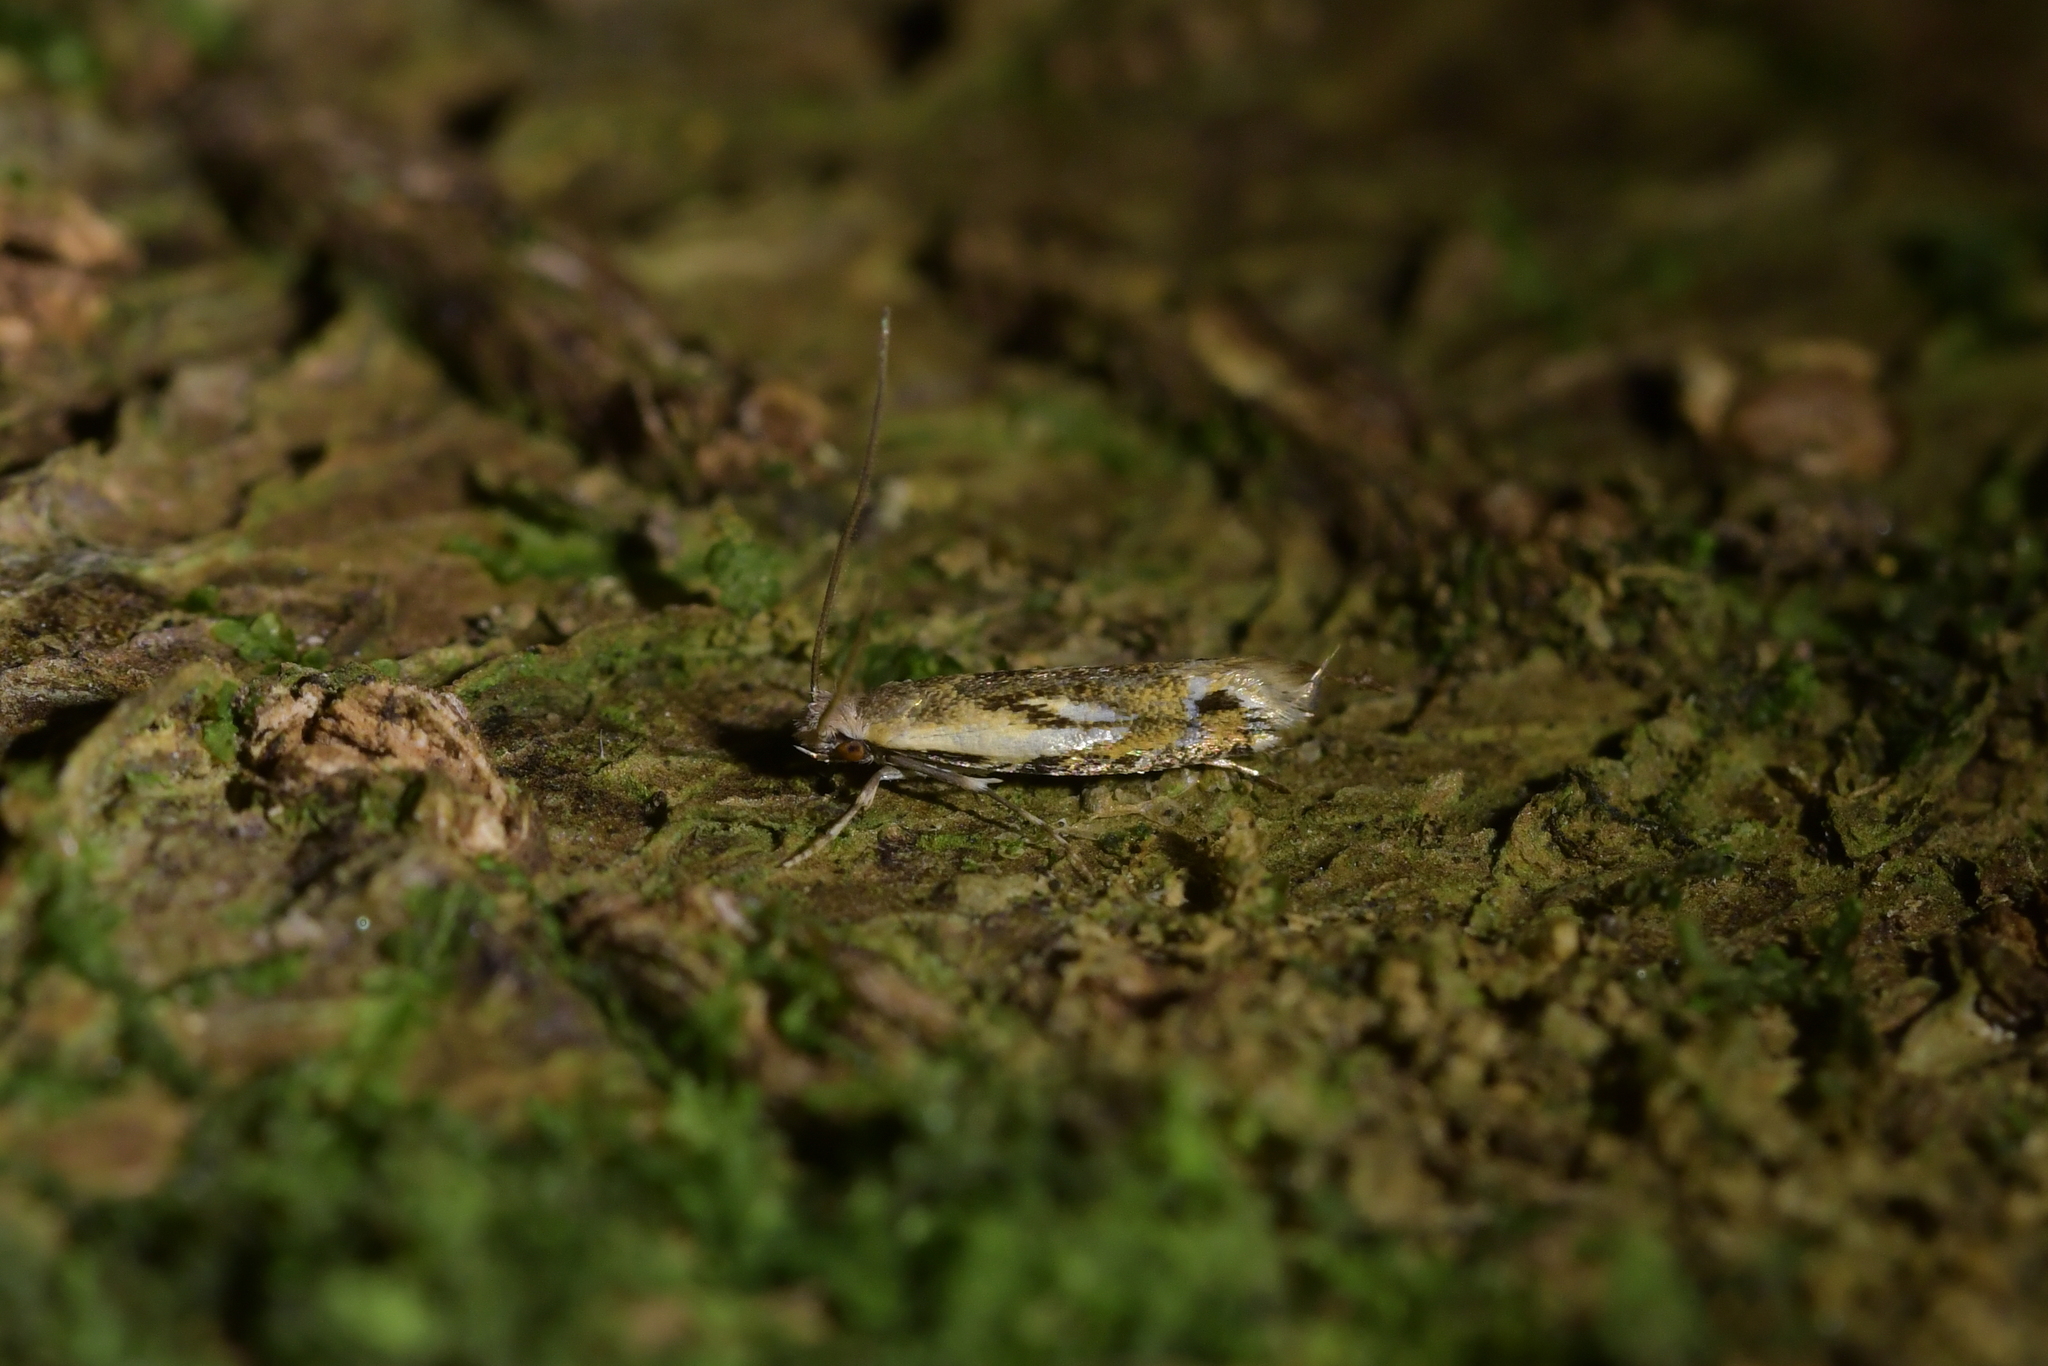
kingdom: Animalia
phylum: Arthropoda
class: Insecta
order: Lepidoptera
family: Tineidae
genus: Erechthias
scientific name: Erechthias decoranda
